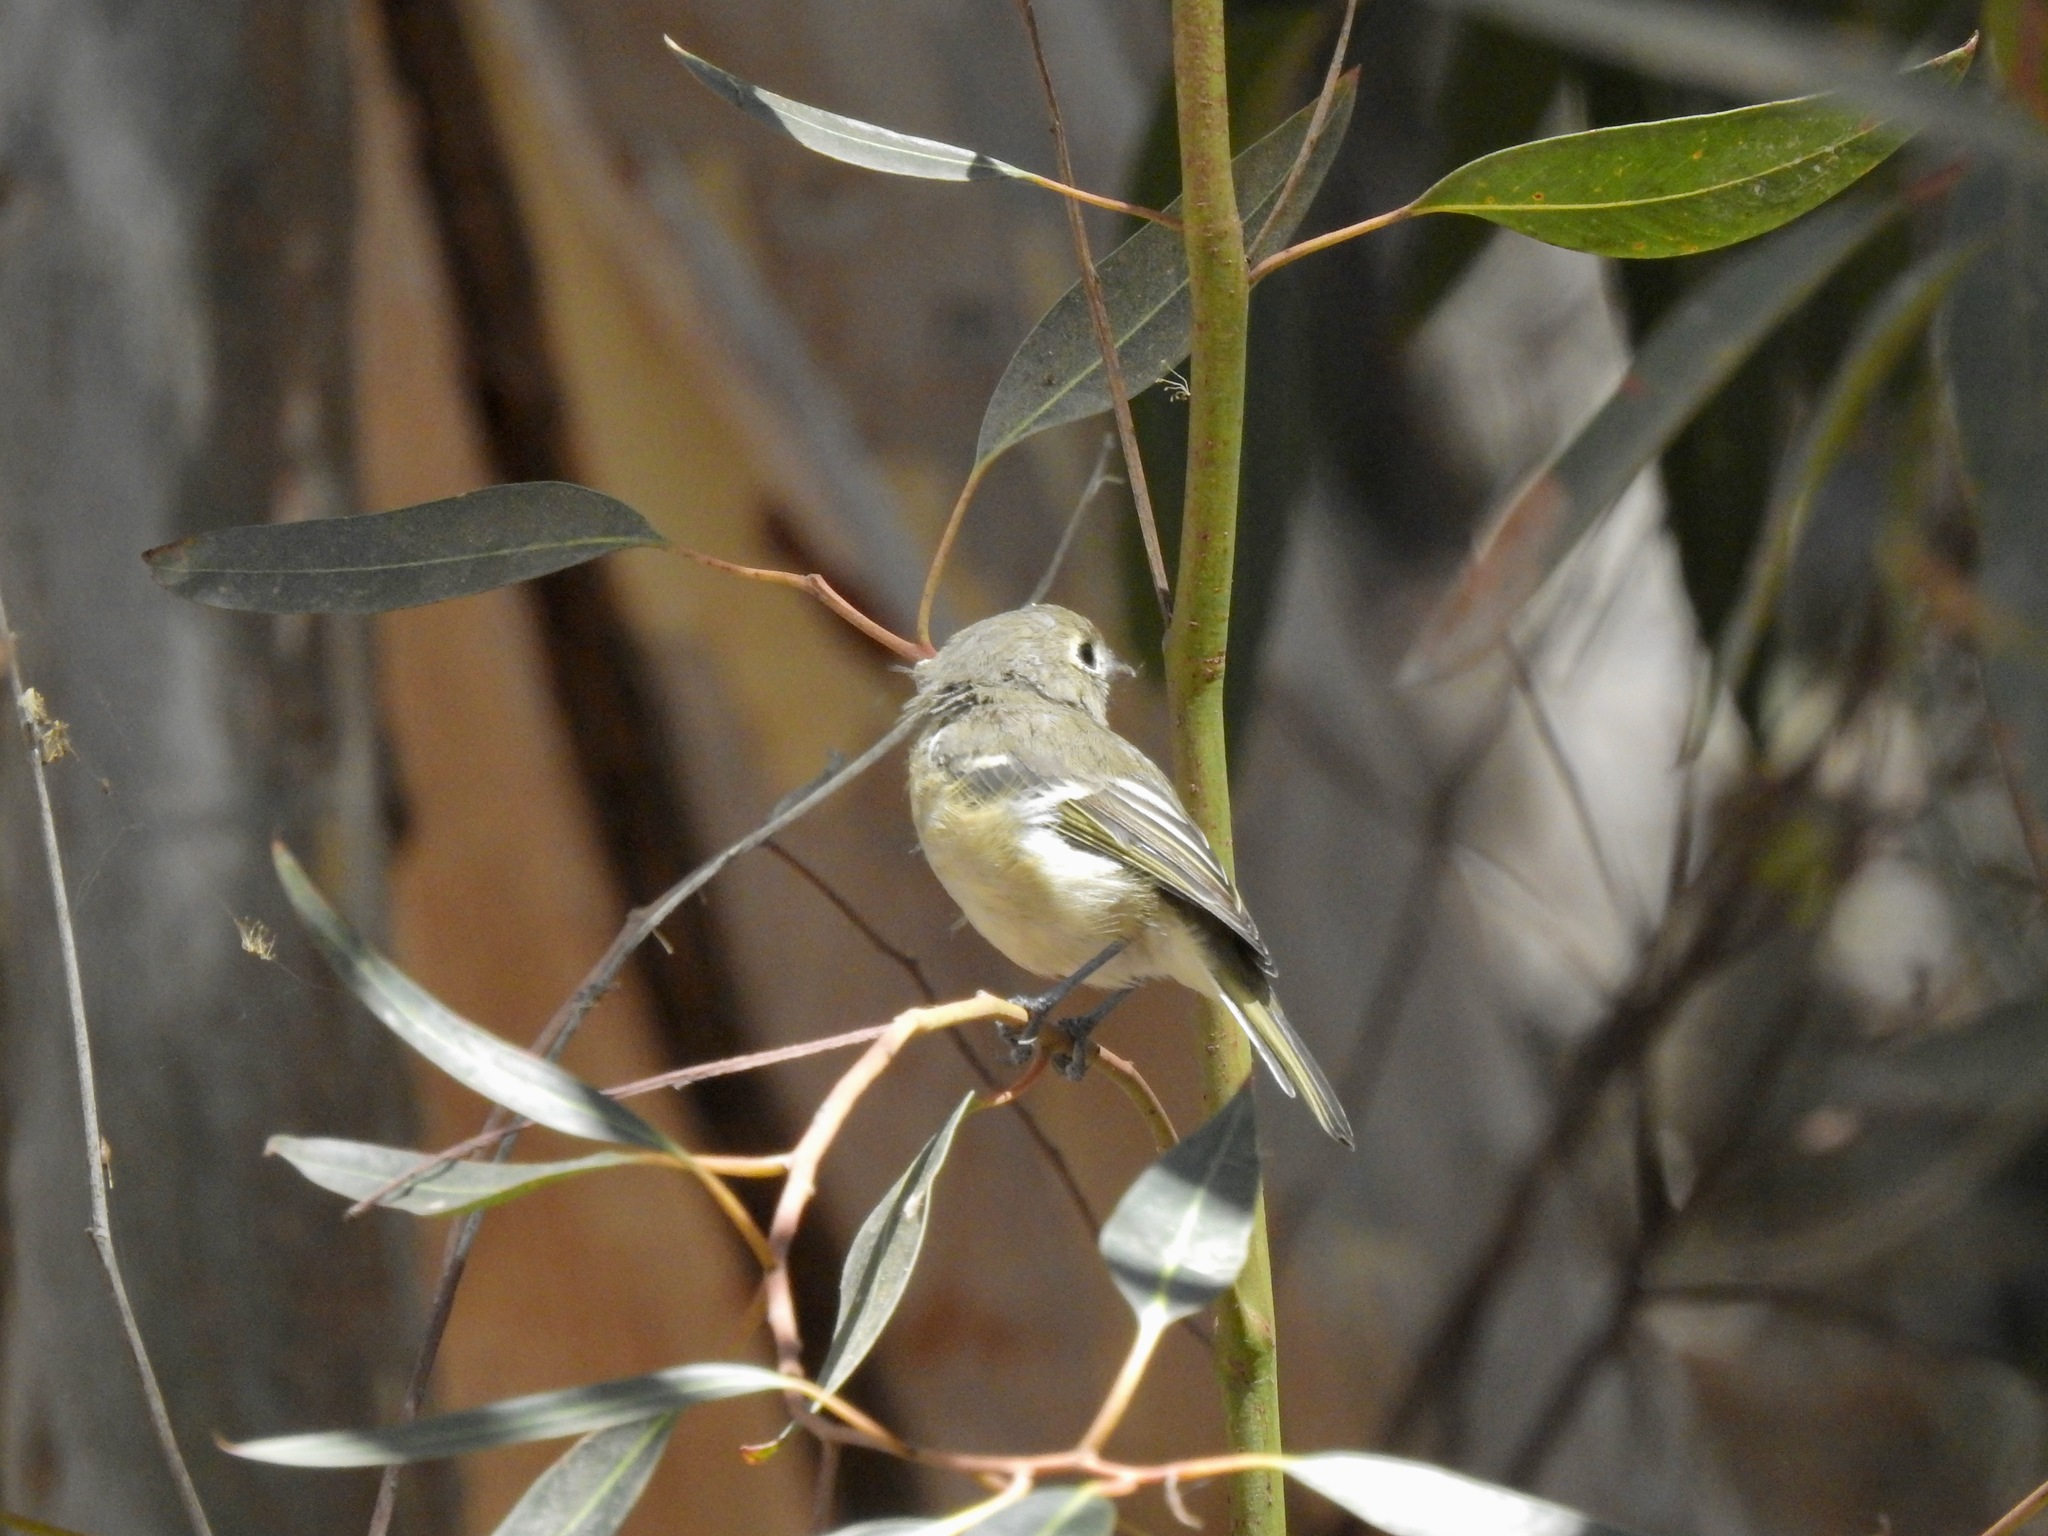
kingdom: Animalia
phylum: Chordata
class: Aves
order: Passeriformes
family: Vireonidae
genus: Vireo
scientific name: Vireo huttoni
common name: Hutton's vireo
